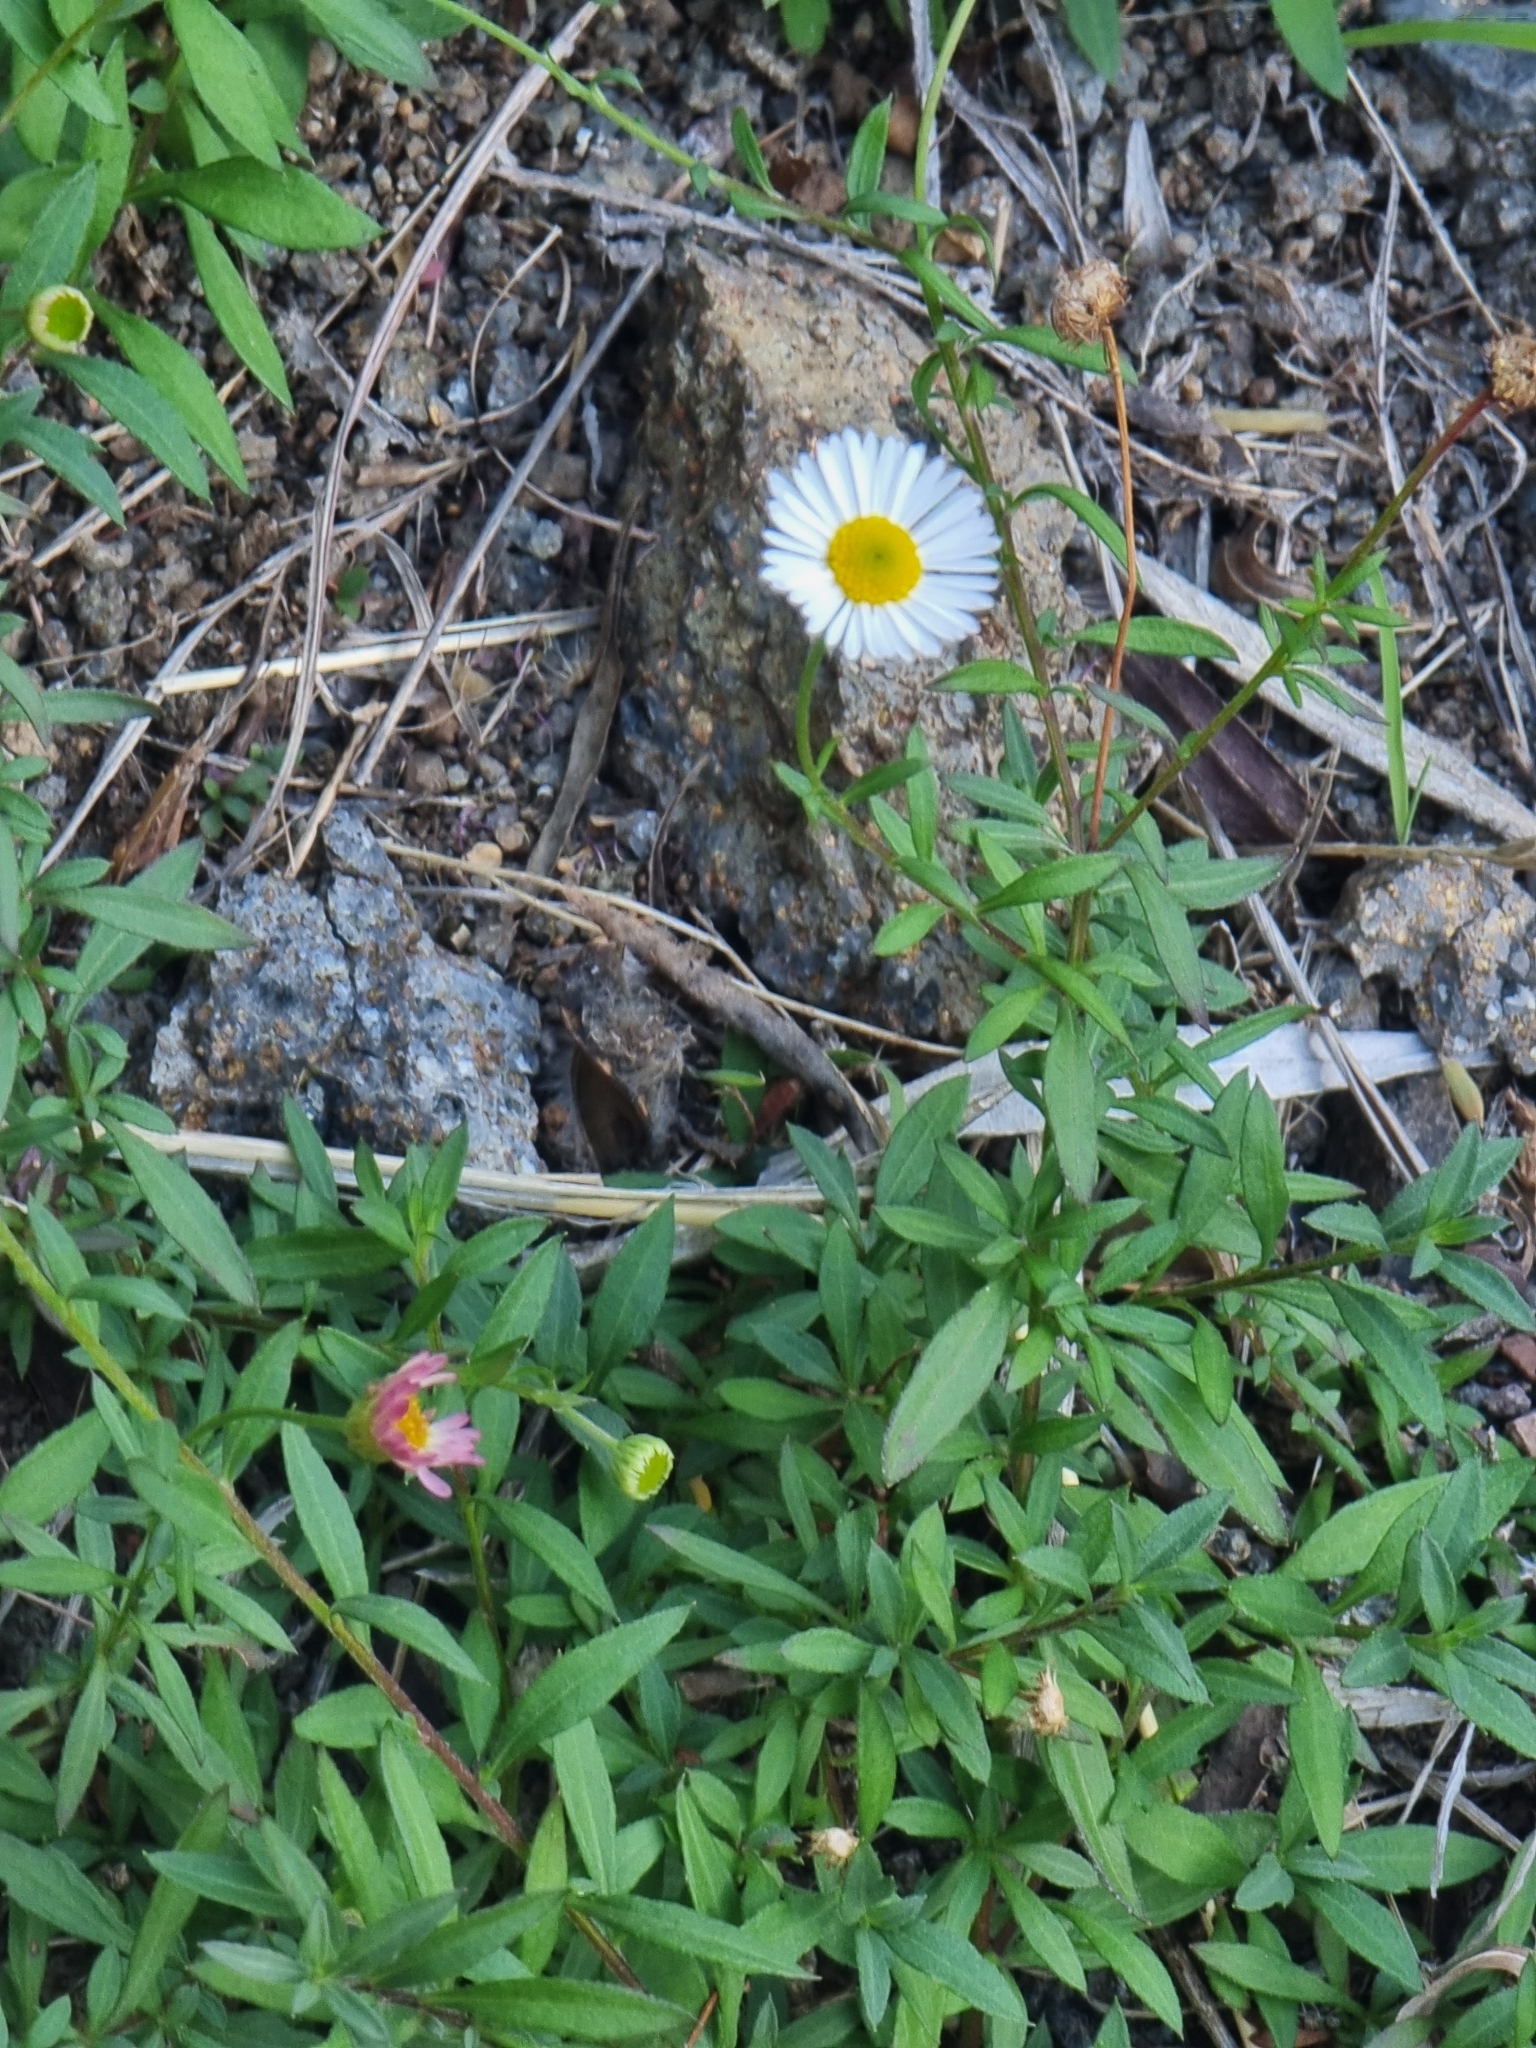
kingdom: Plantae
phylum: Tracheophyta
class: Magnoliopsida
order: Asterales
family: Asteraceae
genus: Erigeron
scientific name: Erigeron karvinskianus
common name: Mexican fleabane
